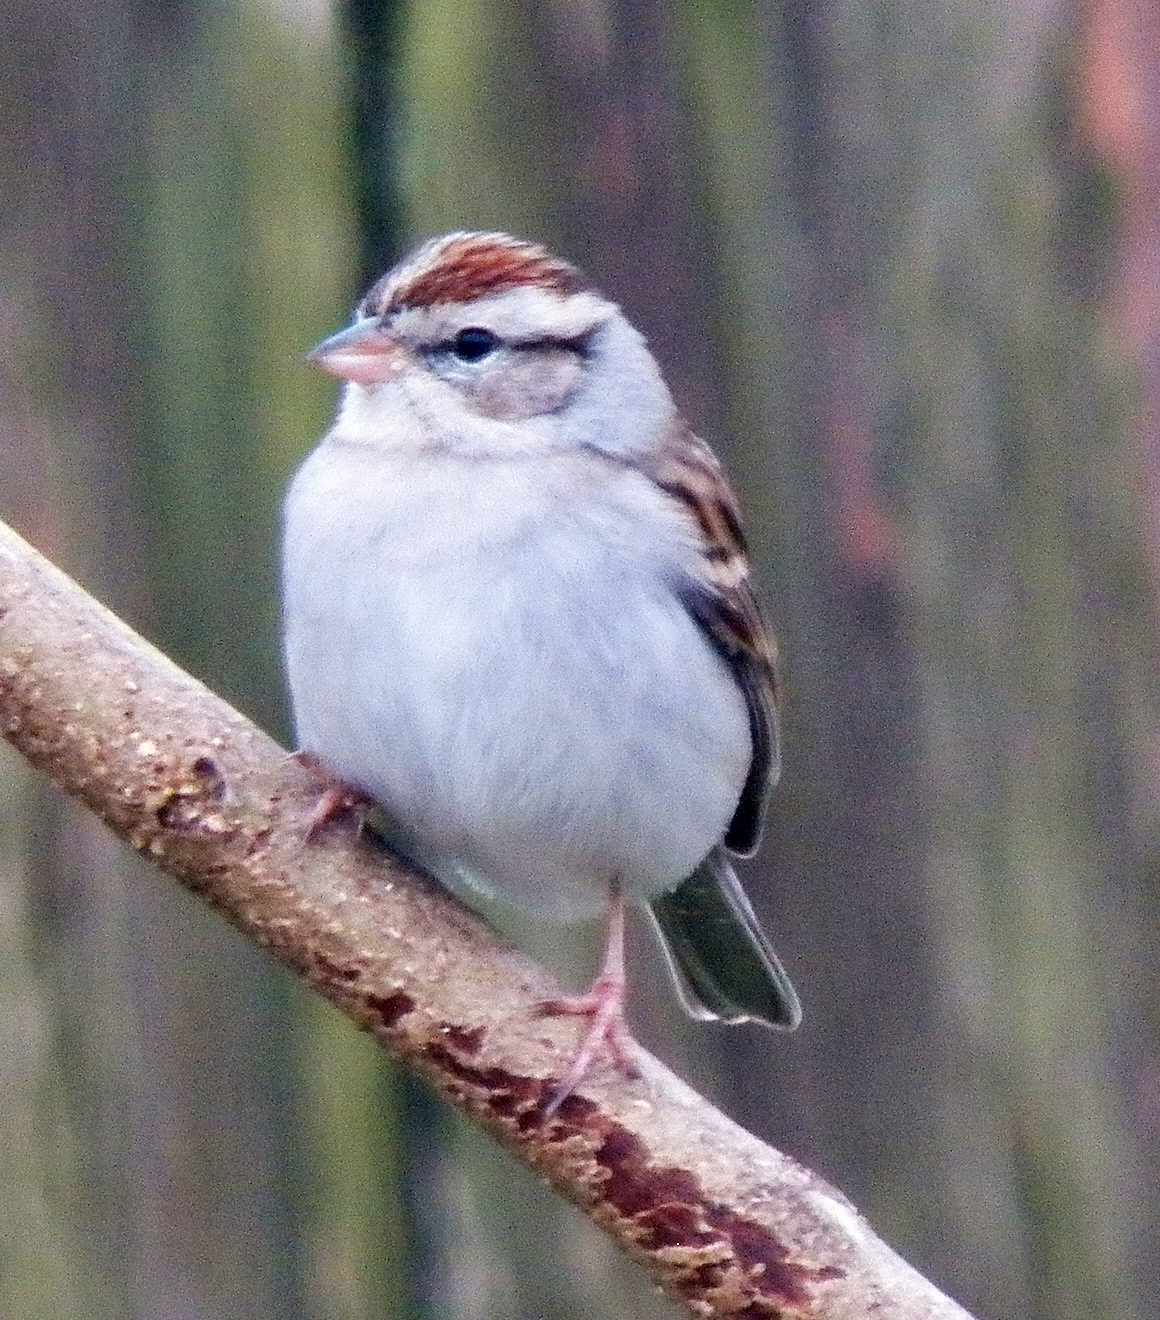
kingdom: Animalia
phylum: Chordata
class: Aves
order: Passeriformes
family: Passerellidae
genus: Spizella
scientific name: Spizella passerina
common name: Chipping sparrow
